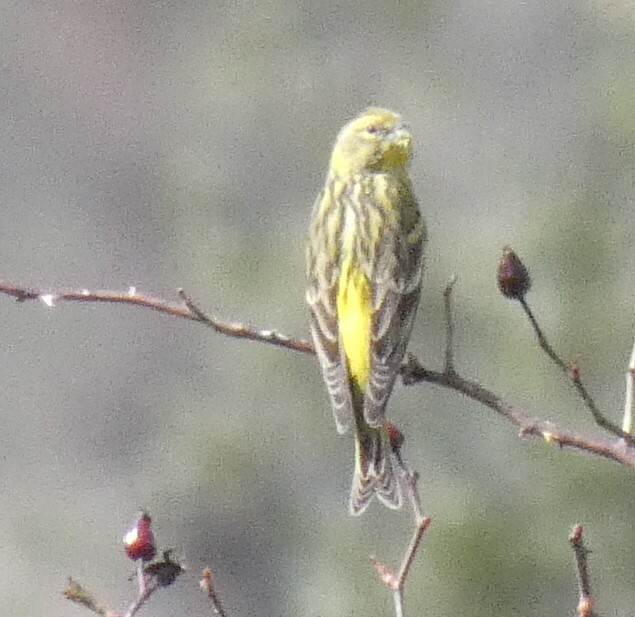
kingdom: Animalia
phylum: Chordata
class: Aves
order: Passeriformes
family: Fringillidae
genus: Serinus
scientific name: Serinus serinus
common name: European serin
